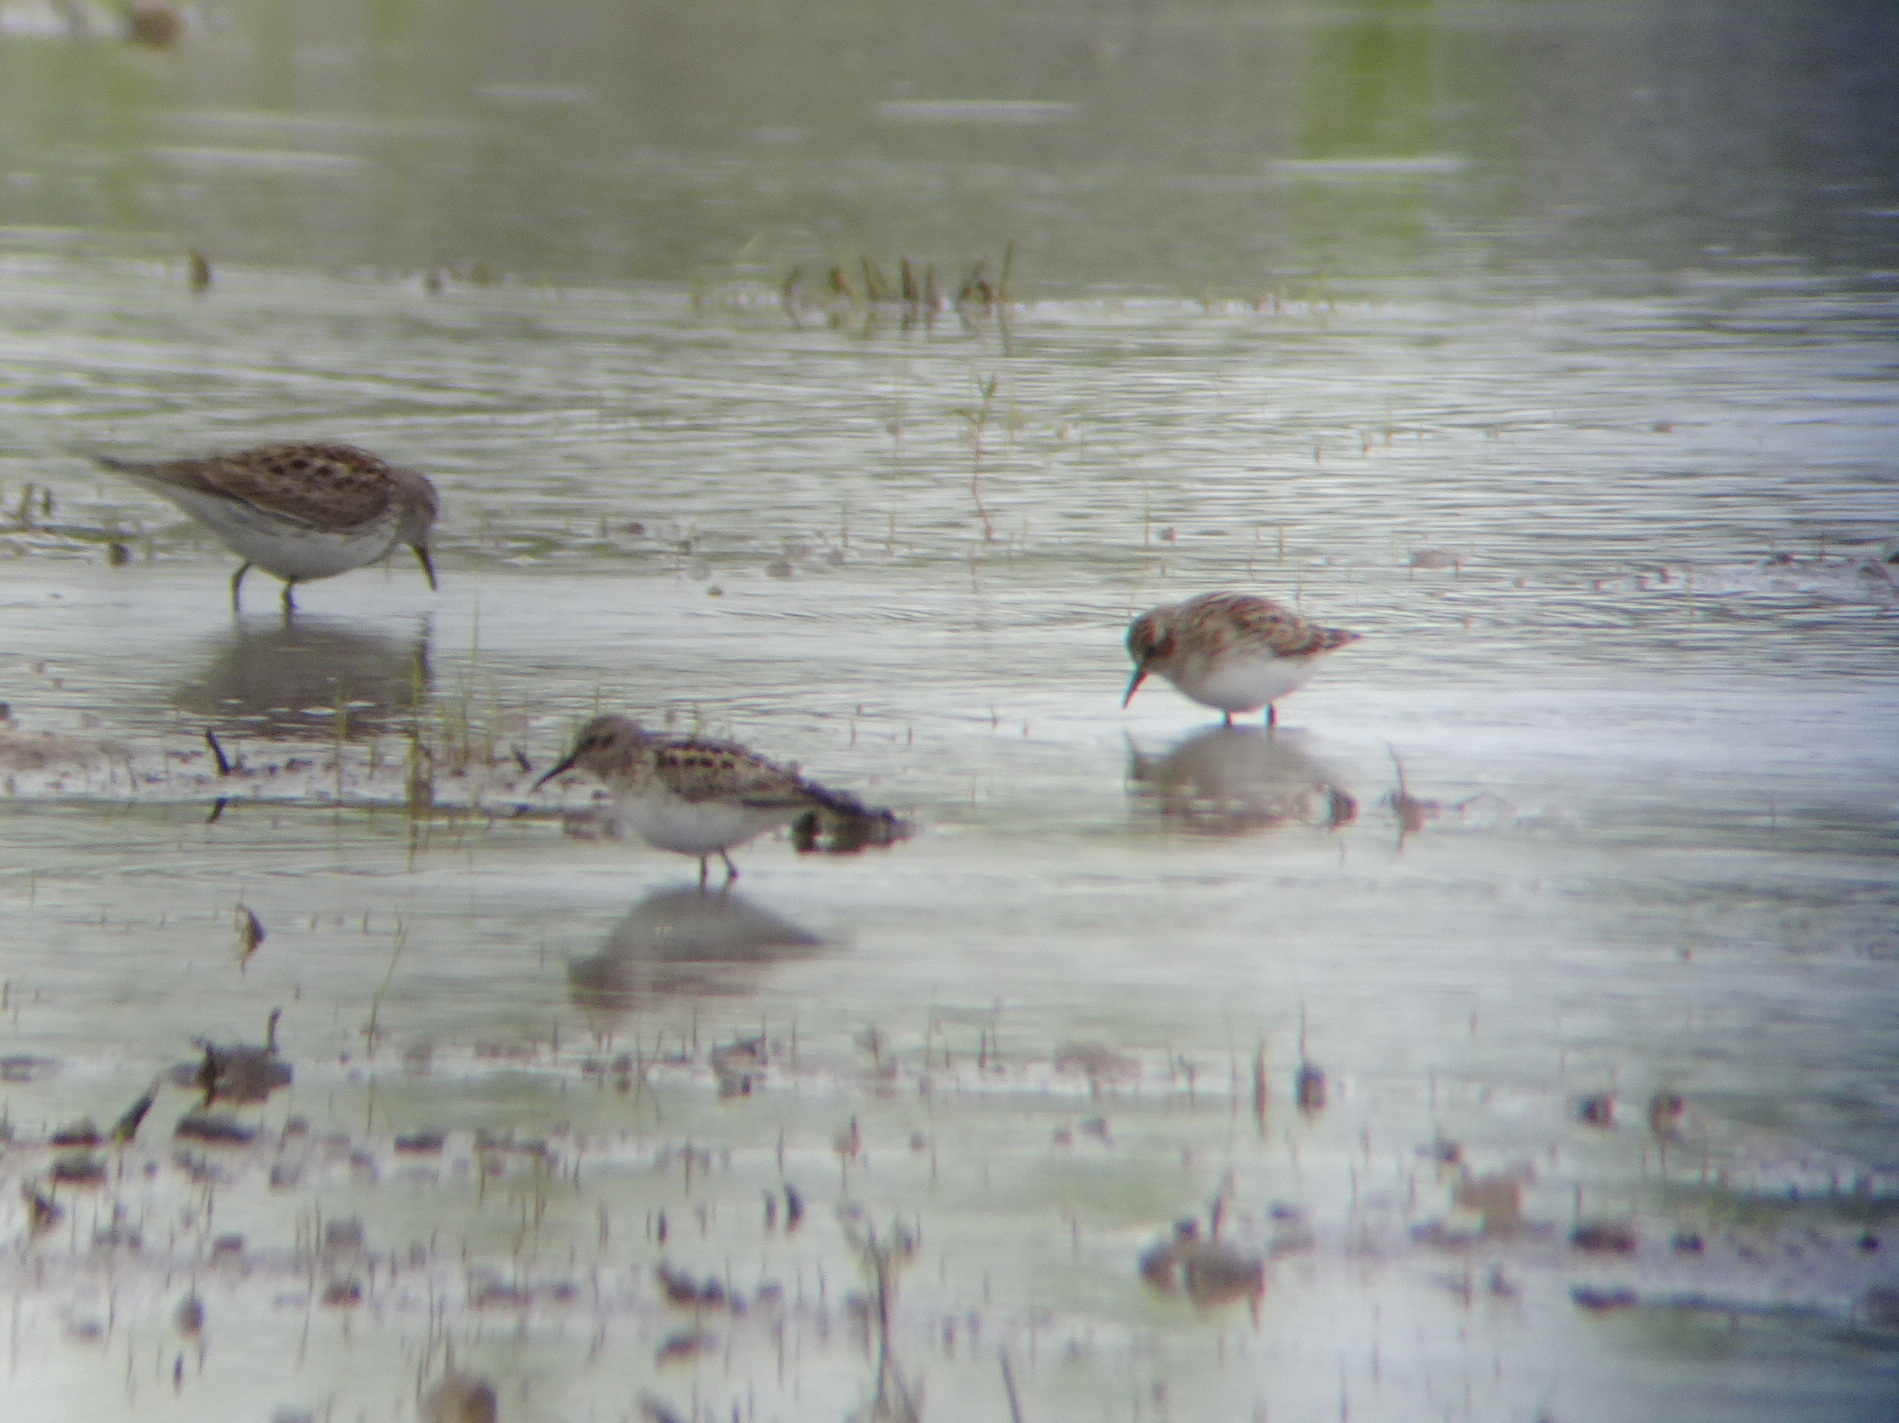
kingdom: Animalia
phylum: Chordata
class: Aves
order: Charadriiformes
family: Scolopacidae
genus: Calidris
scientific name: Calidris minutilla
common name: Least sandpiper
